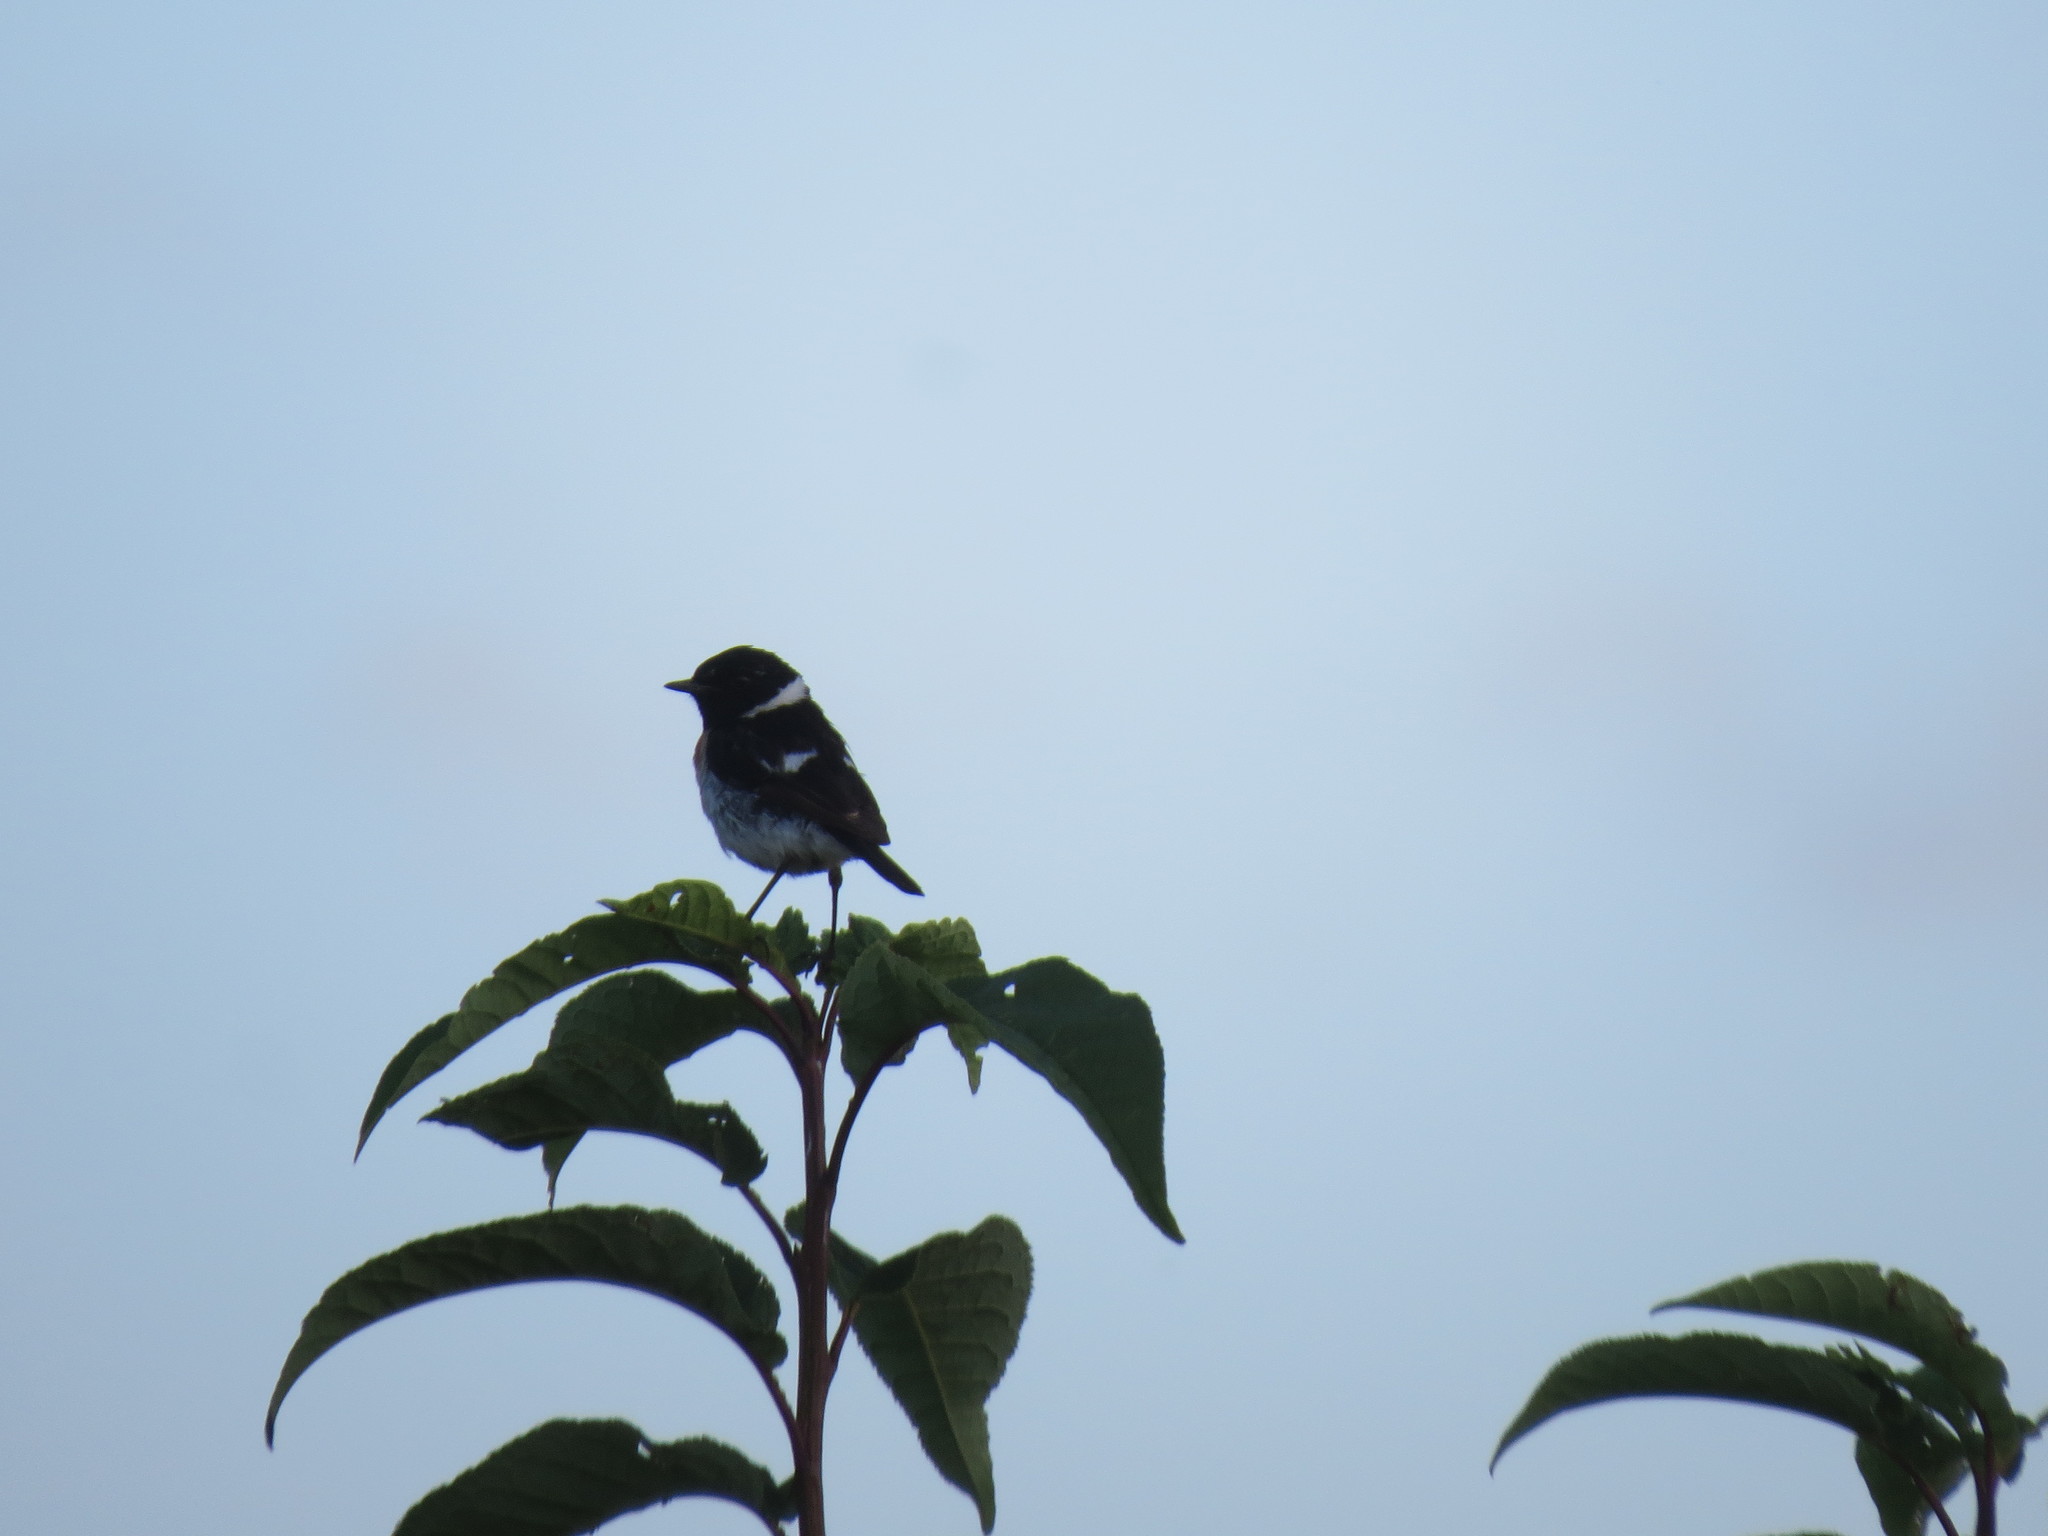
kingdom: Animalia
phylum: Chordata
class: Aves
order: Passeriformes
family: Muscicapidae
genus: Saxicola
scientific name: Saxicola maurus
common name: Siberian stonechat
